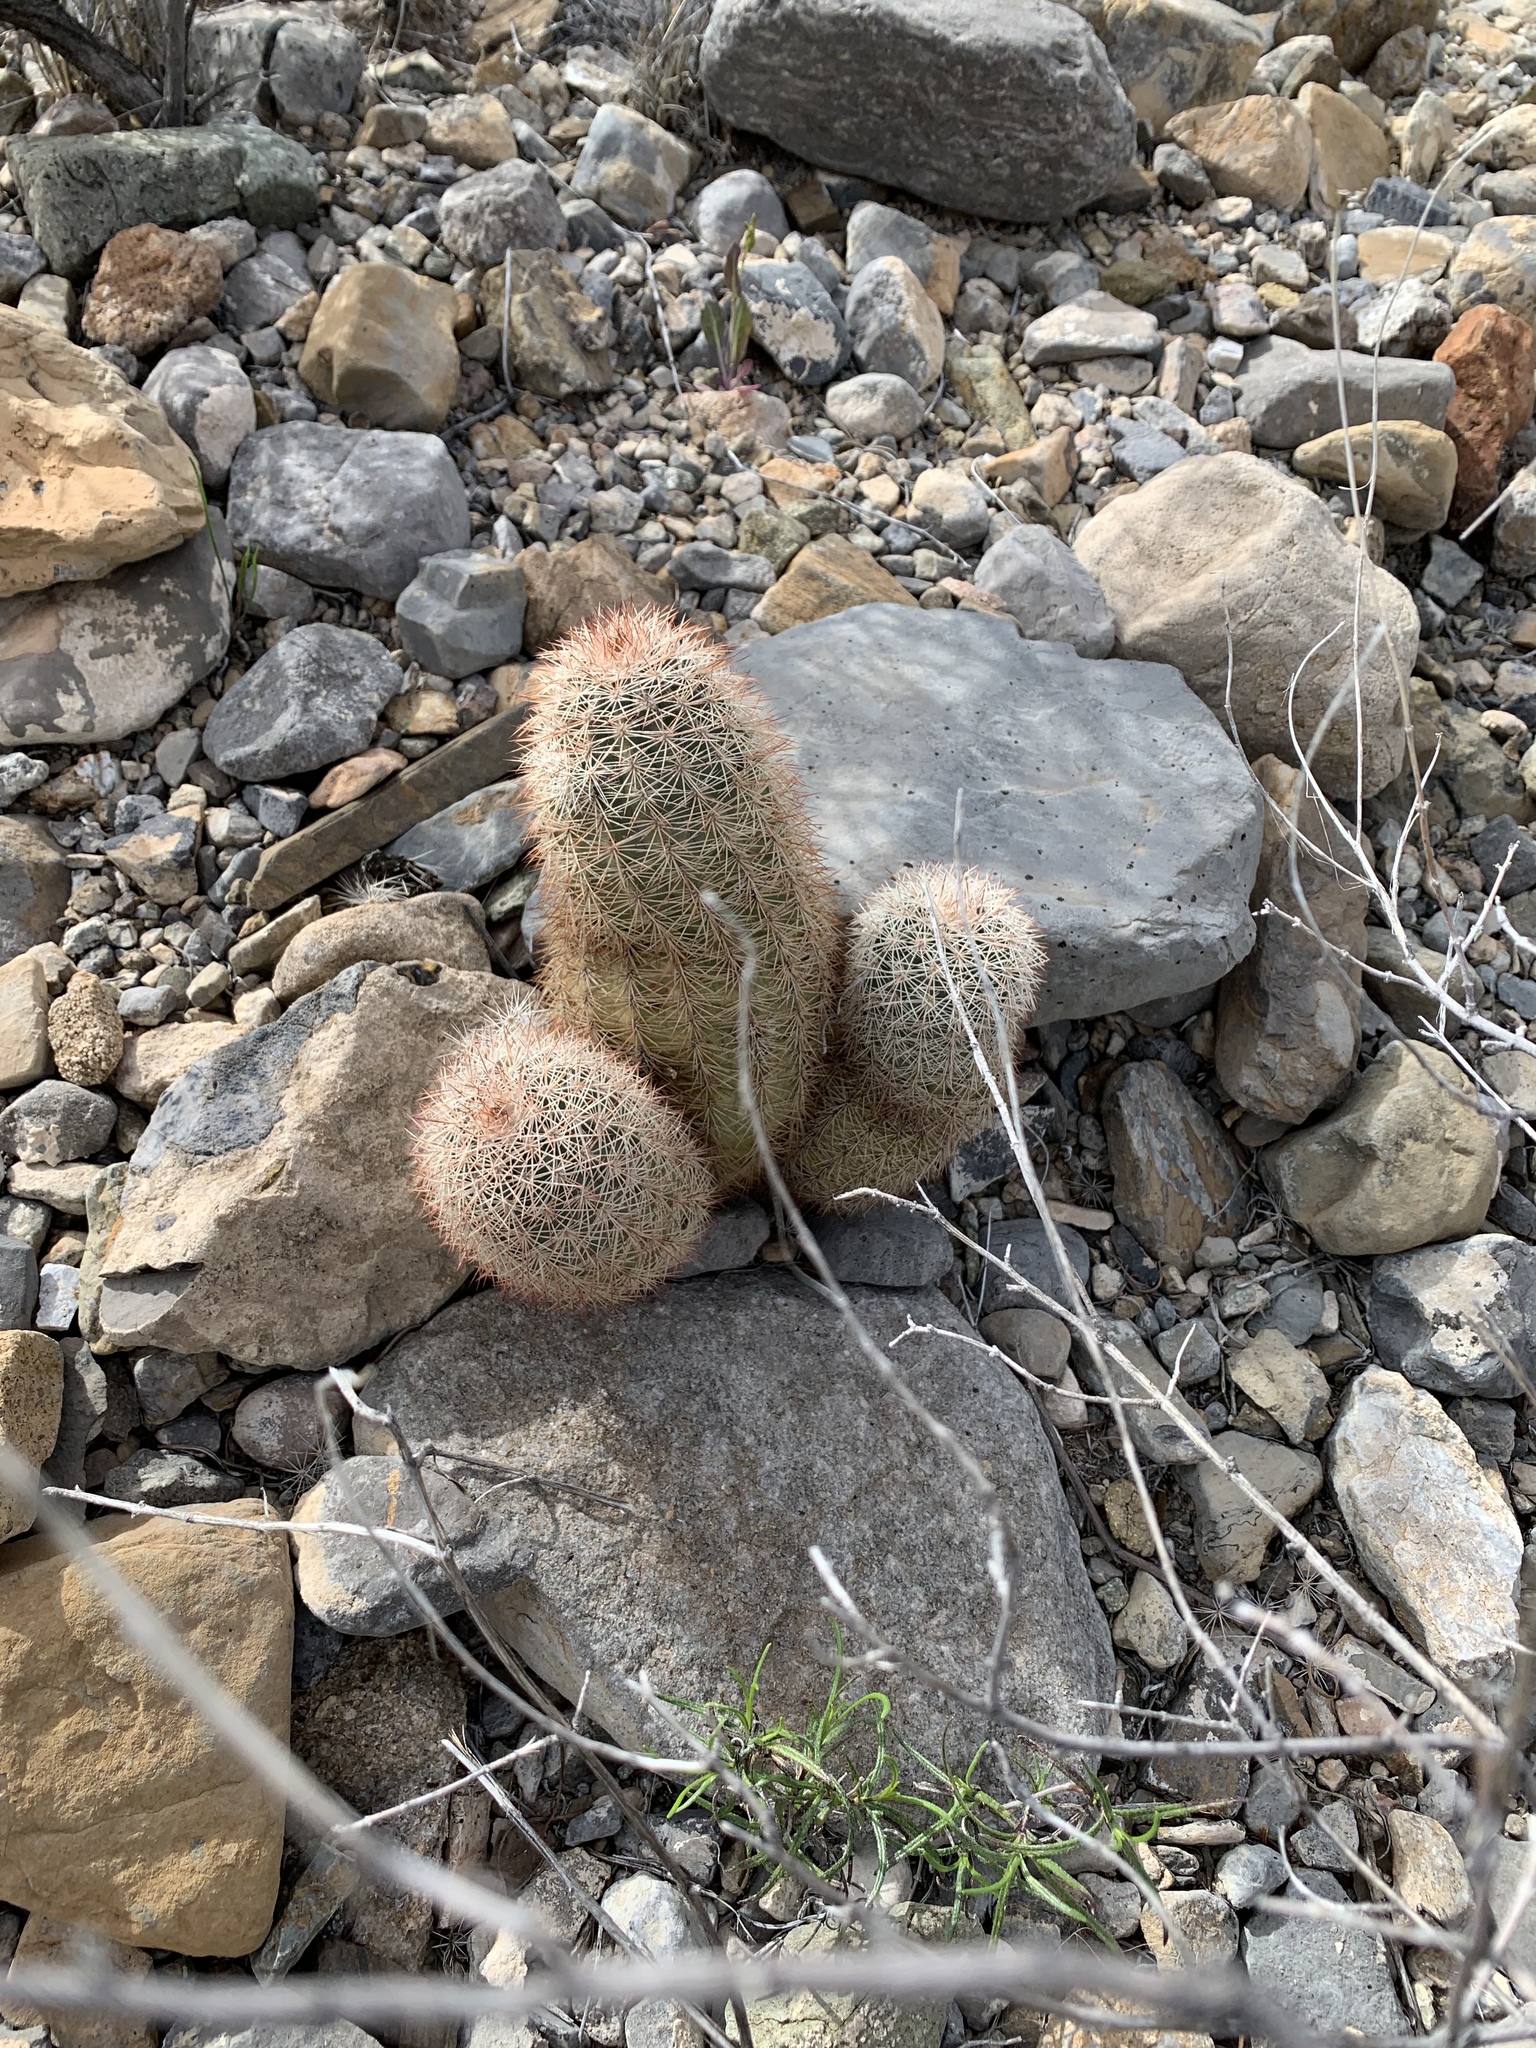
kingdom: Plantae
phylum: Tracheophyta
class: Magnoliopsida
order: Caryophyllales
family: Cactaceae
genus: Echinocereus
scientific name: Echinocereus dasyacanthus
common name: Spiny hedgehog cactus
